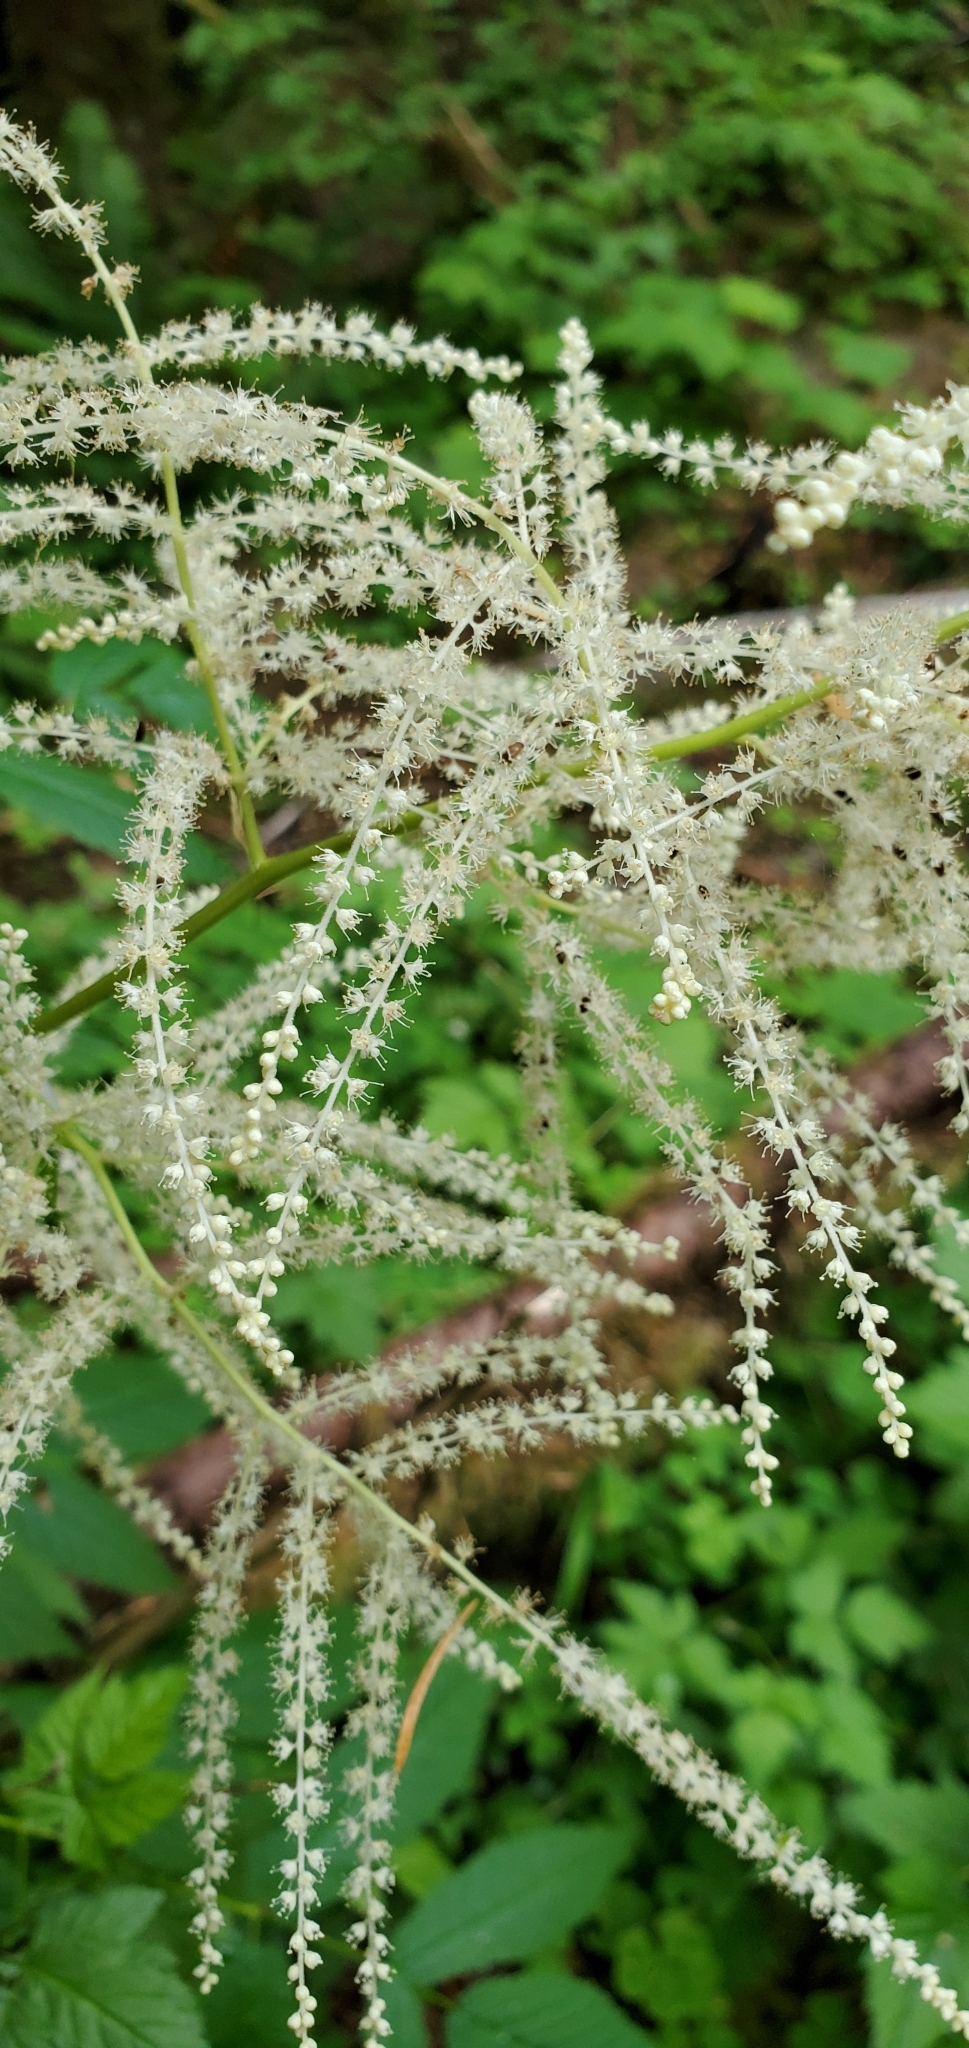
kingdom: Plantae
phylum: Tracheophyta
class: Magnoliopsida
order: Rosales
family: Rosaceae
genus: Aruncus
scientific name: Aruncus dioicus
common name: Buck's-beard
